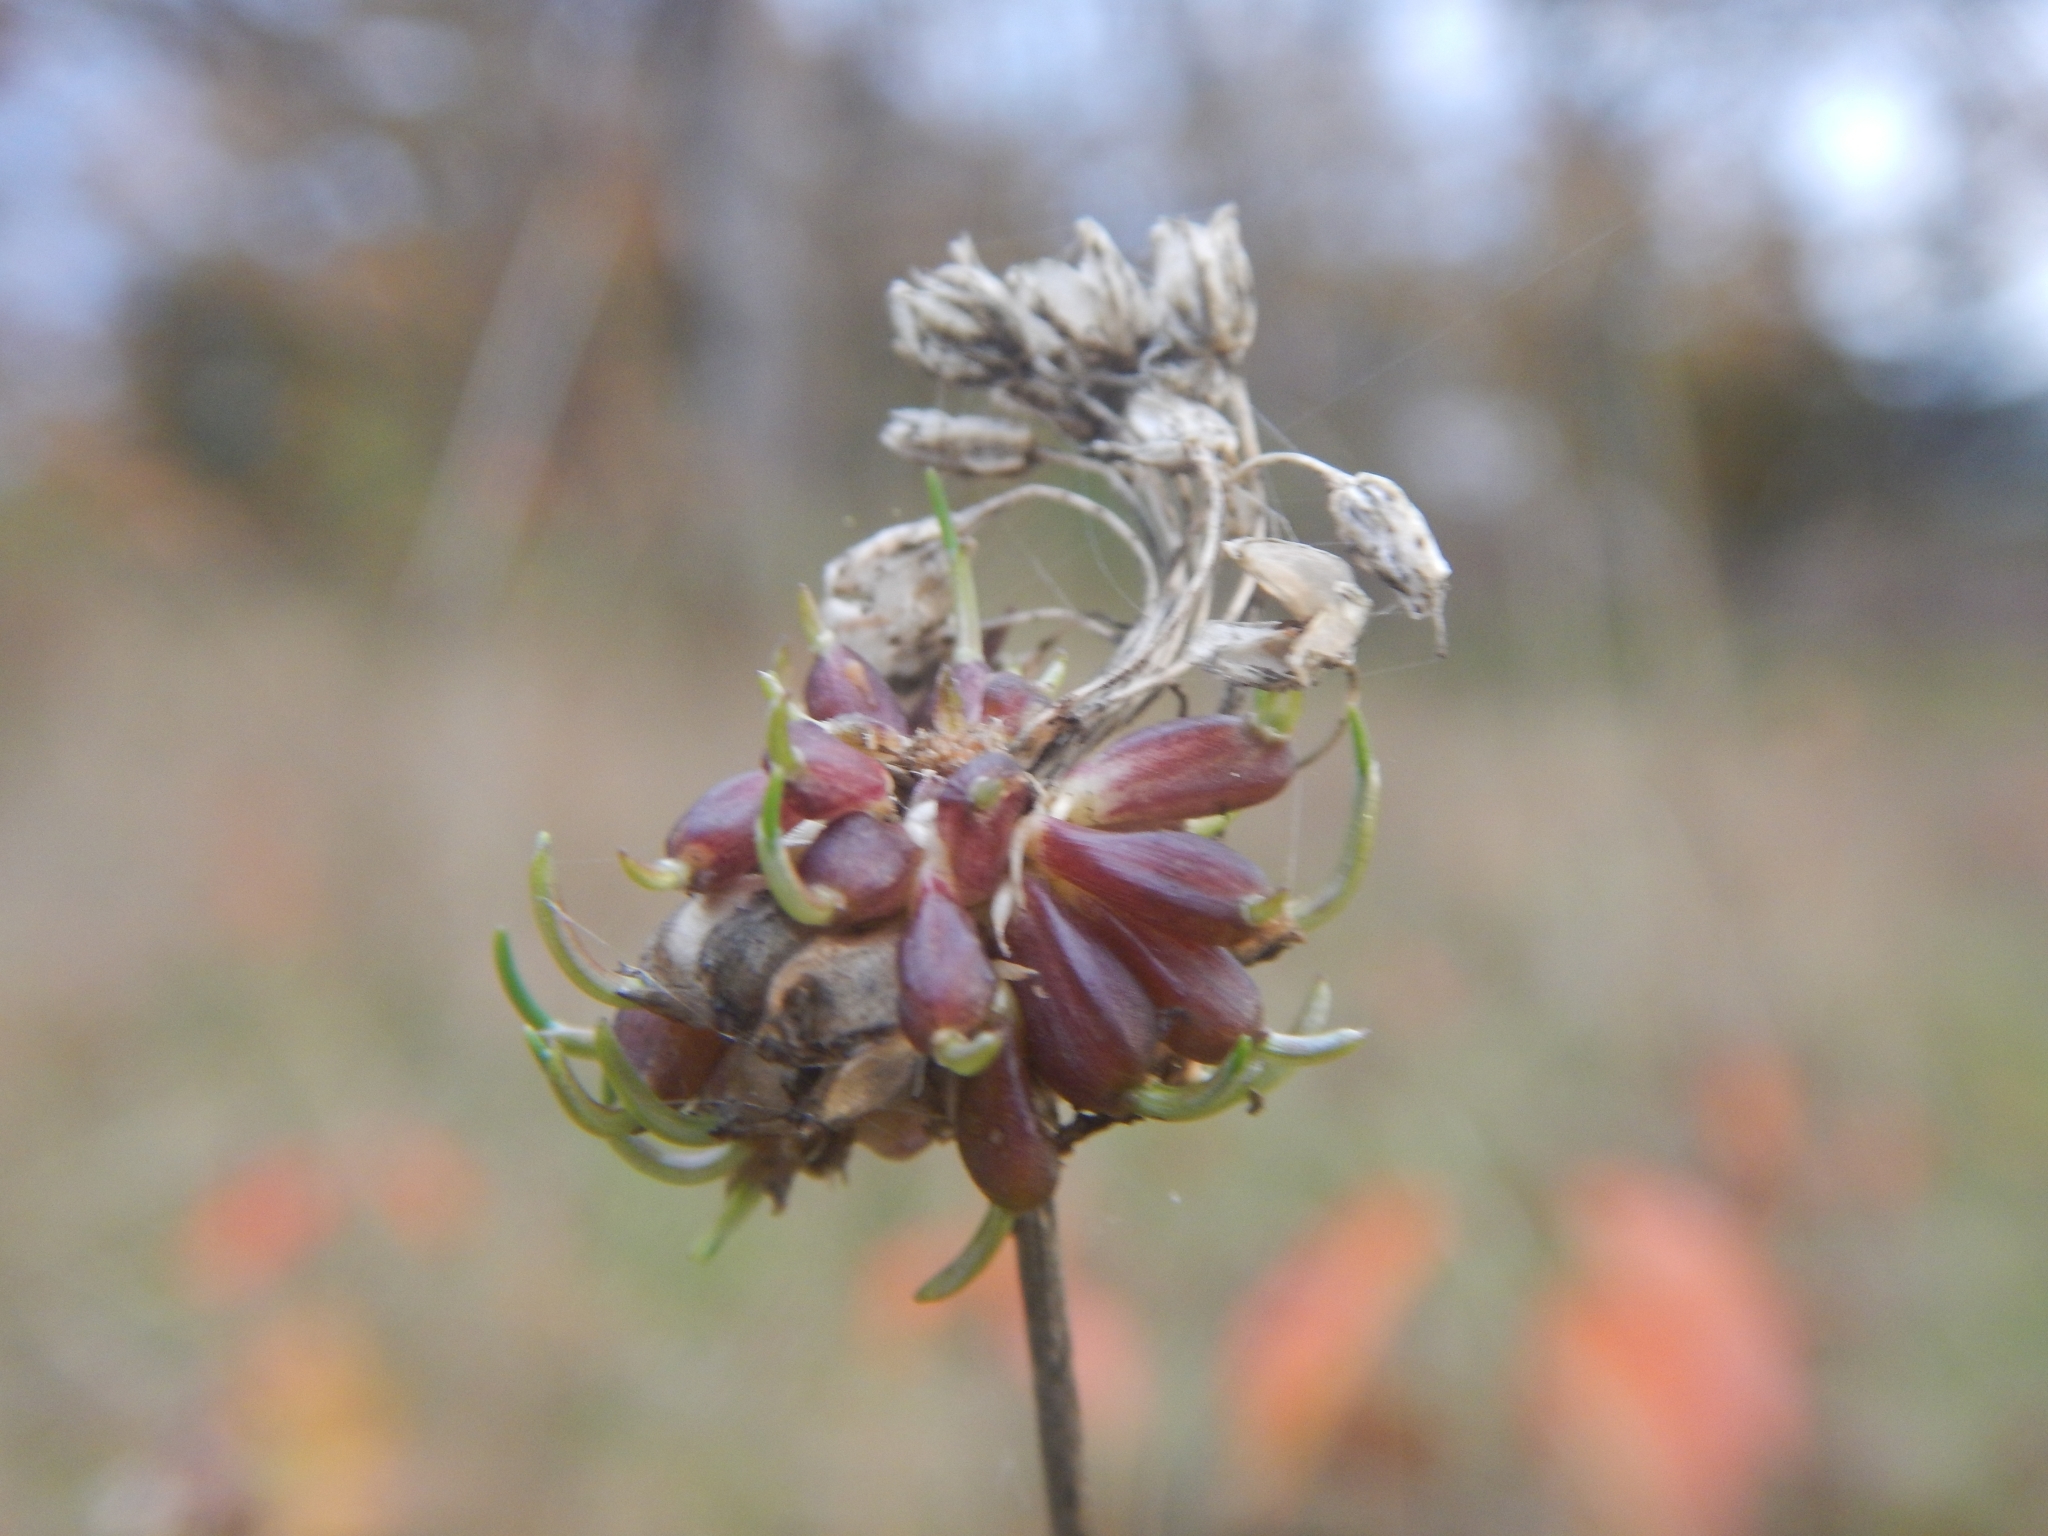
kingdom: Plantae
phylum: Tracheophyta
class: Liliopsida
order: Asparagales
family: Amaryllidaceae
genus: Allium
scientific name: Allium vineale
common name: Crow garlic
